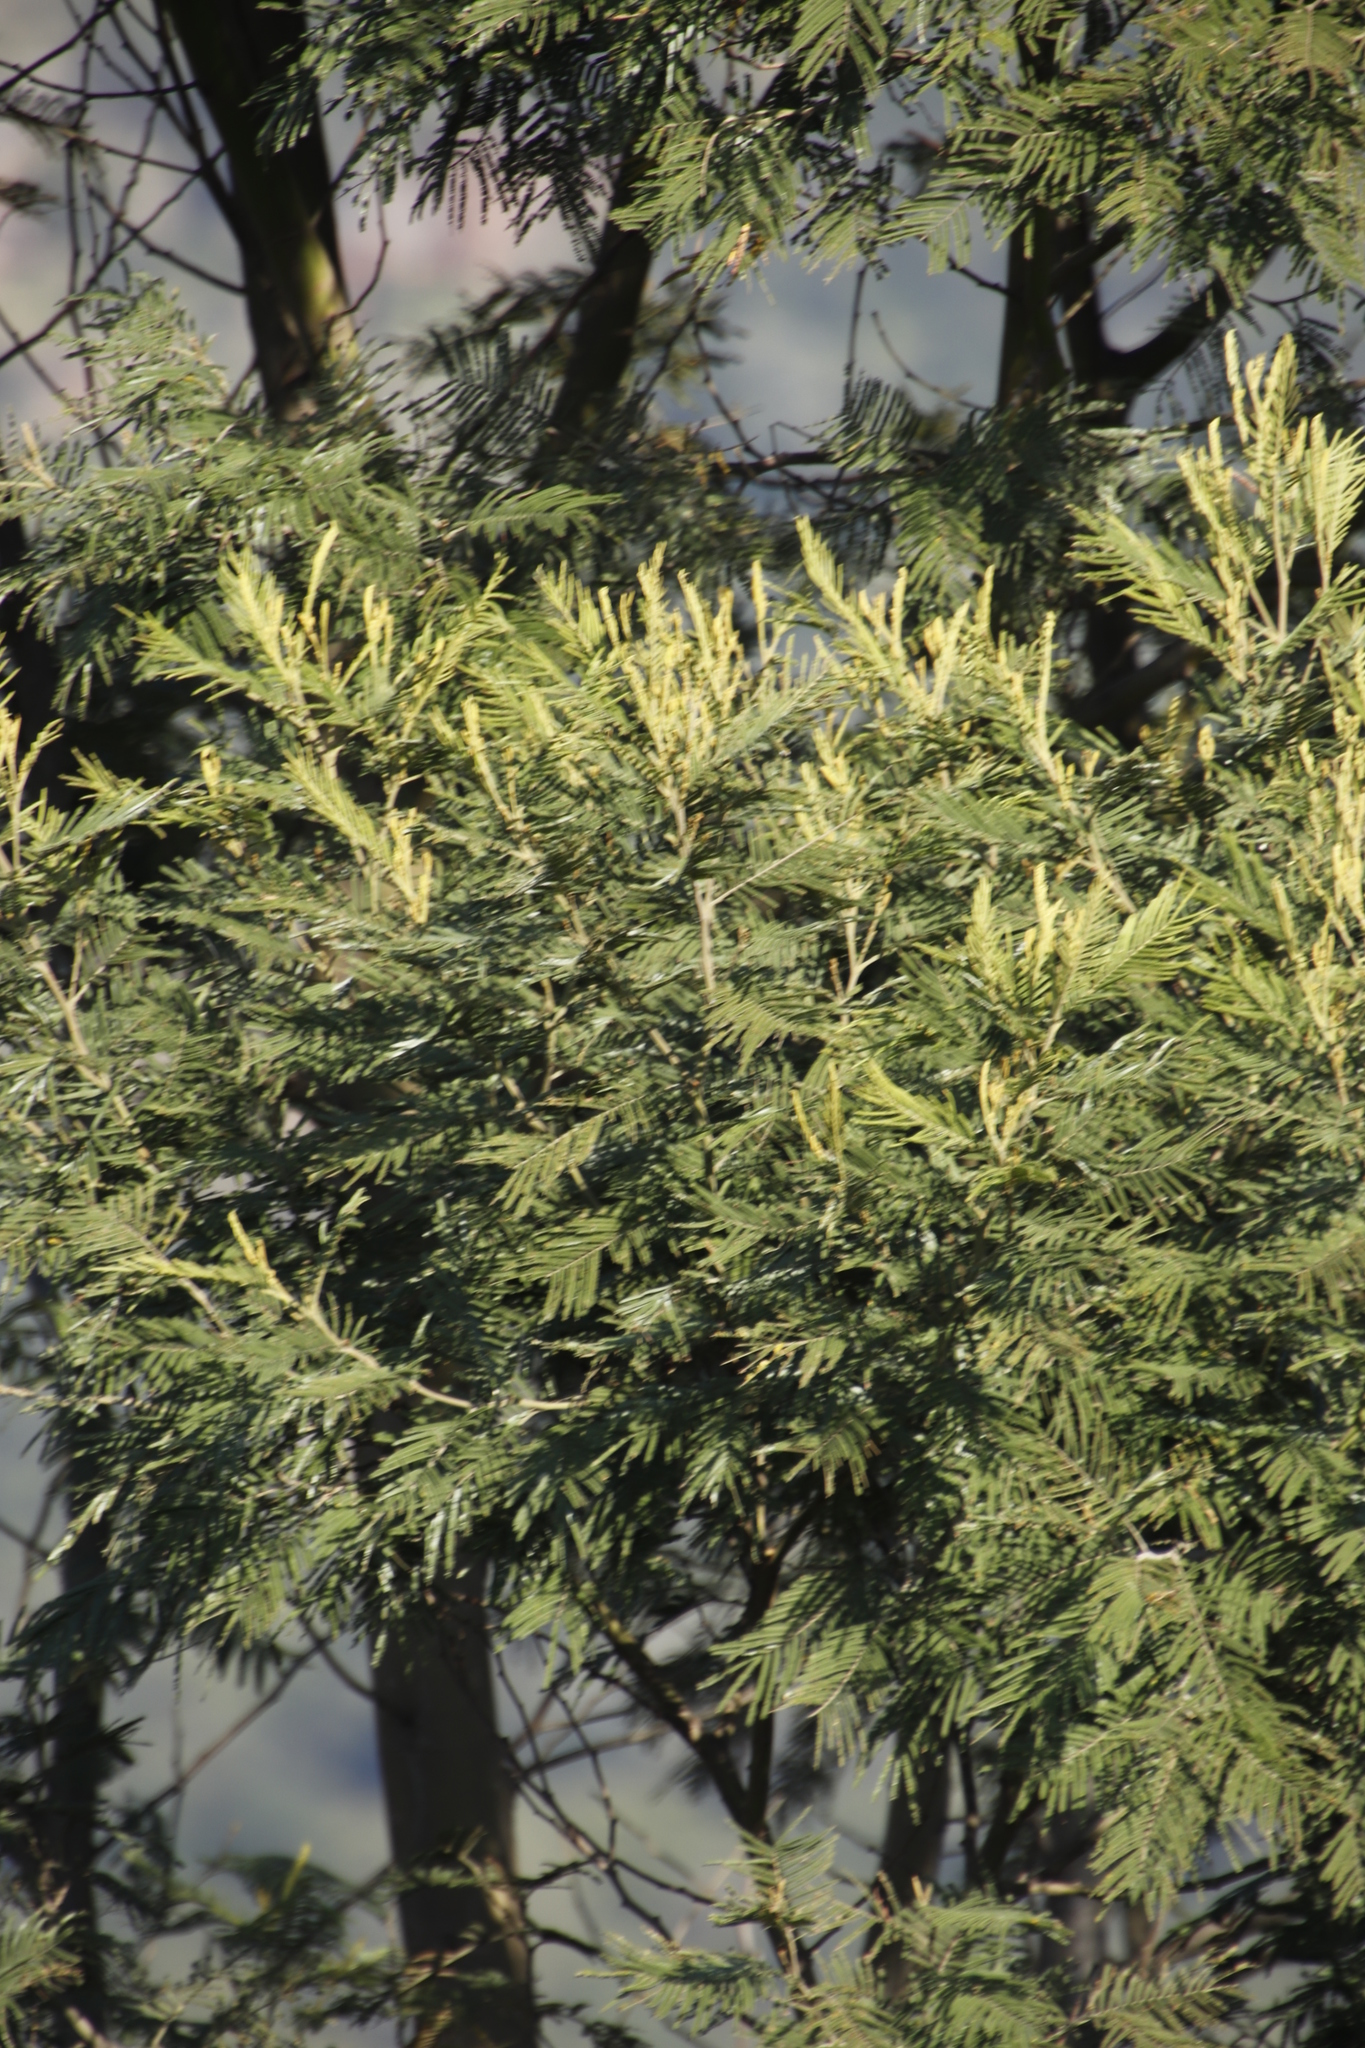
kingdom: Plantae
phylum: Tracheophyta
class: Magnoliopsida
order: Fabales
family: Fabaceae
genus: Acacia
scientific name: Acacia mearnsii
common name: Black wattle
